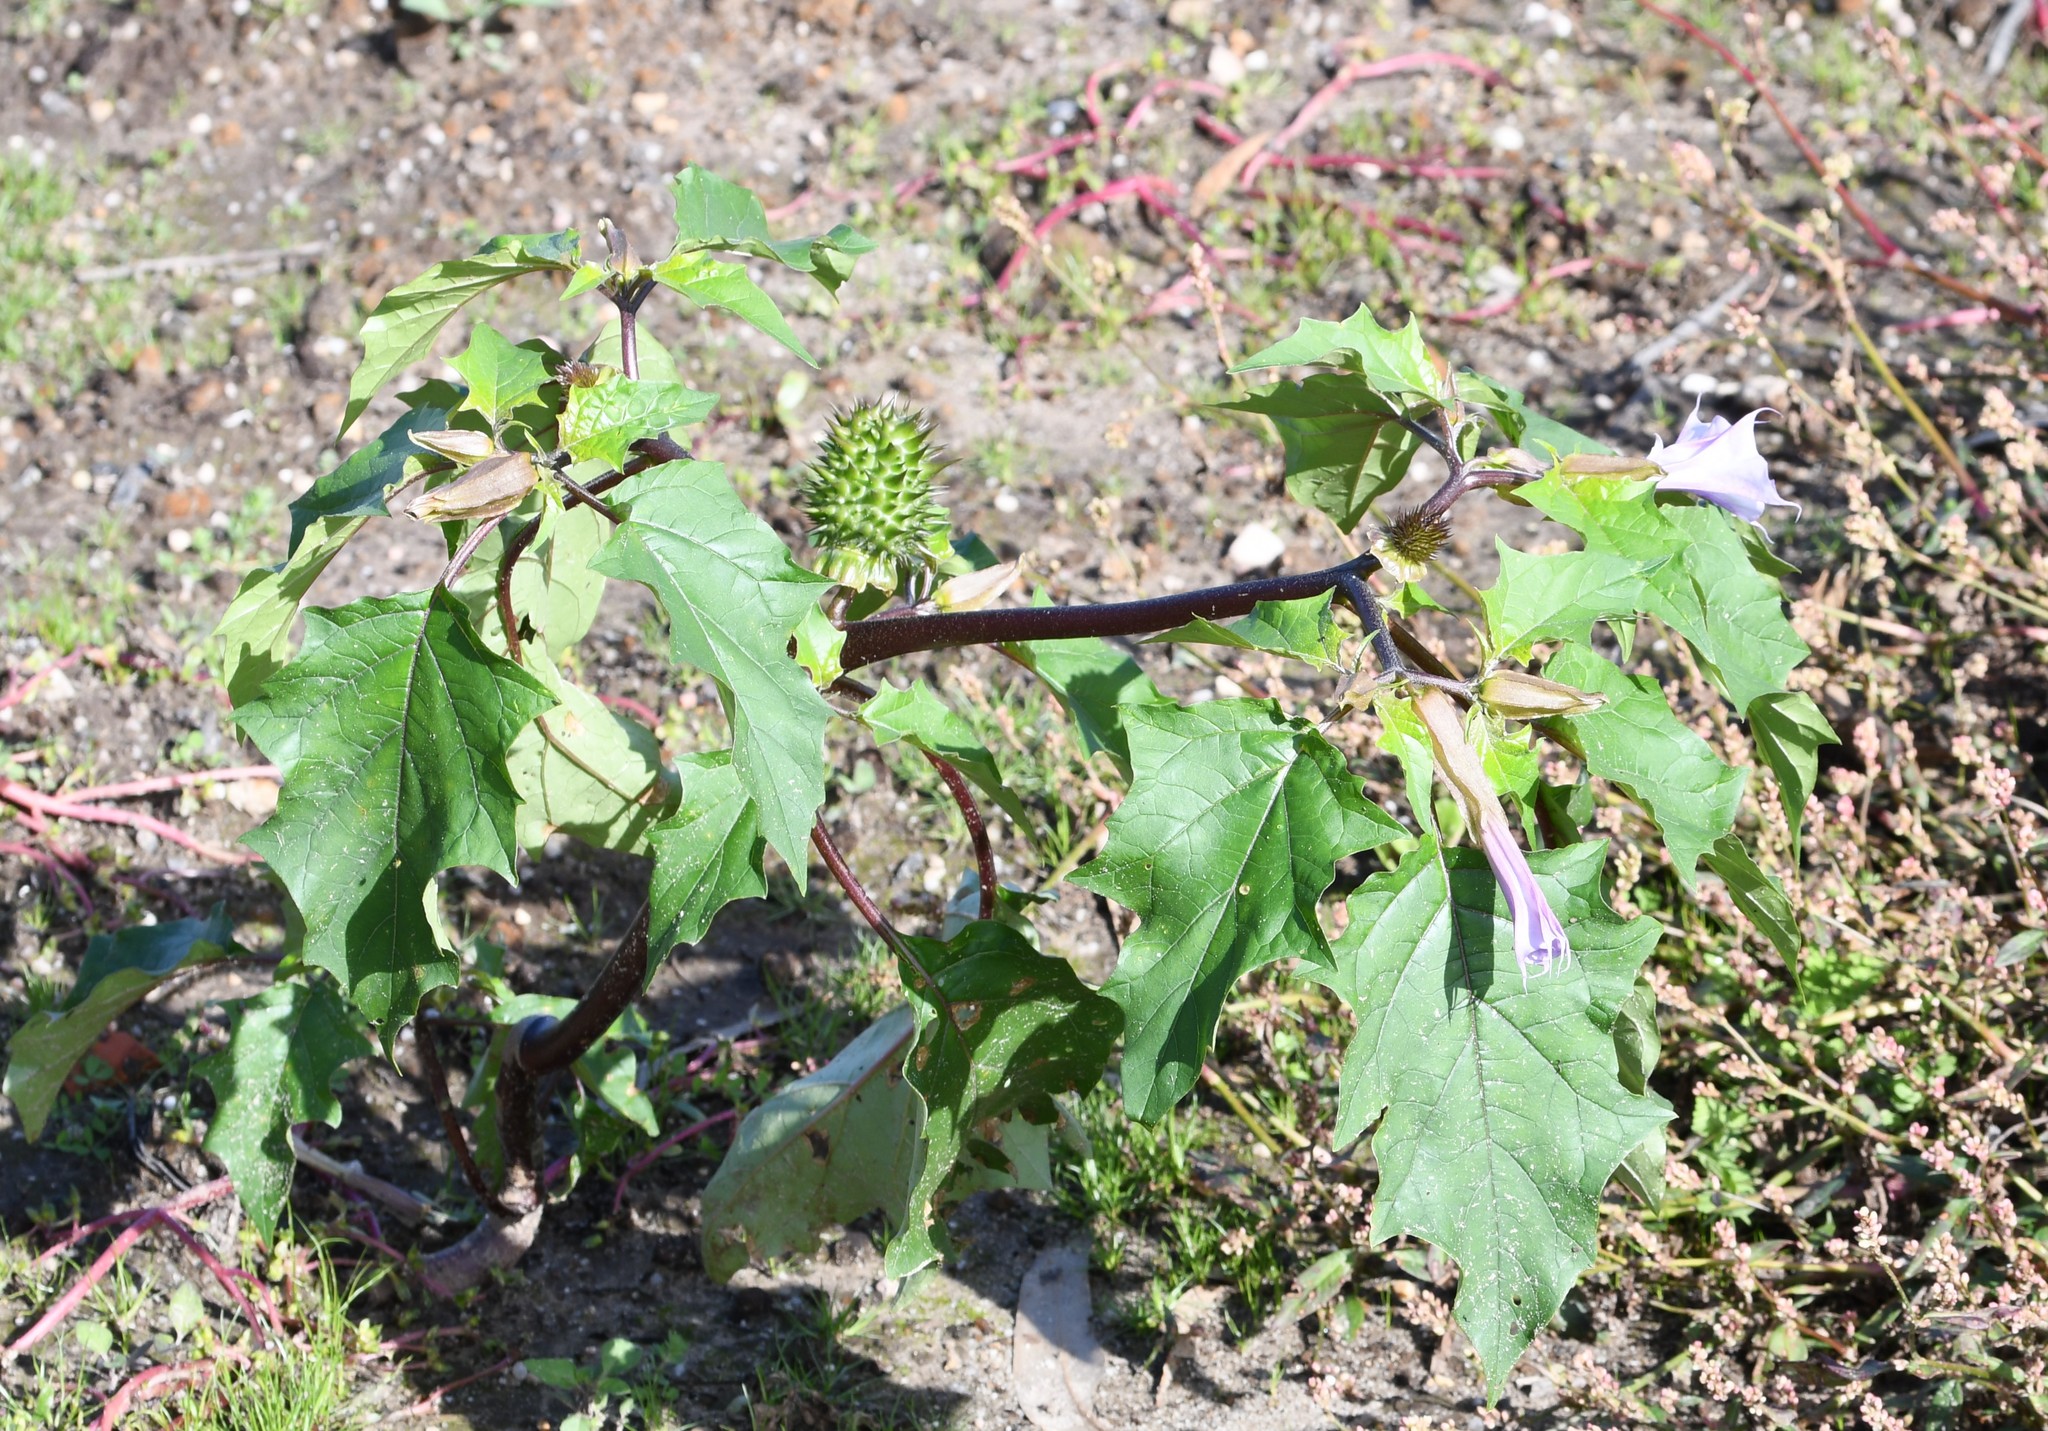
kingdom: Plantae
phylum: Tracheophyta
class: Magnoliopsida
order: Solanales
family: Solanaceae
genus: Datura
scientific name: Datura stramonium
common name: Thorn-apple
